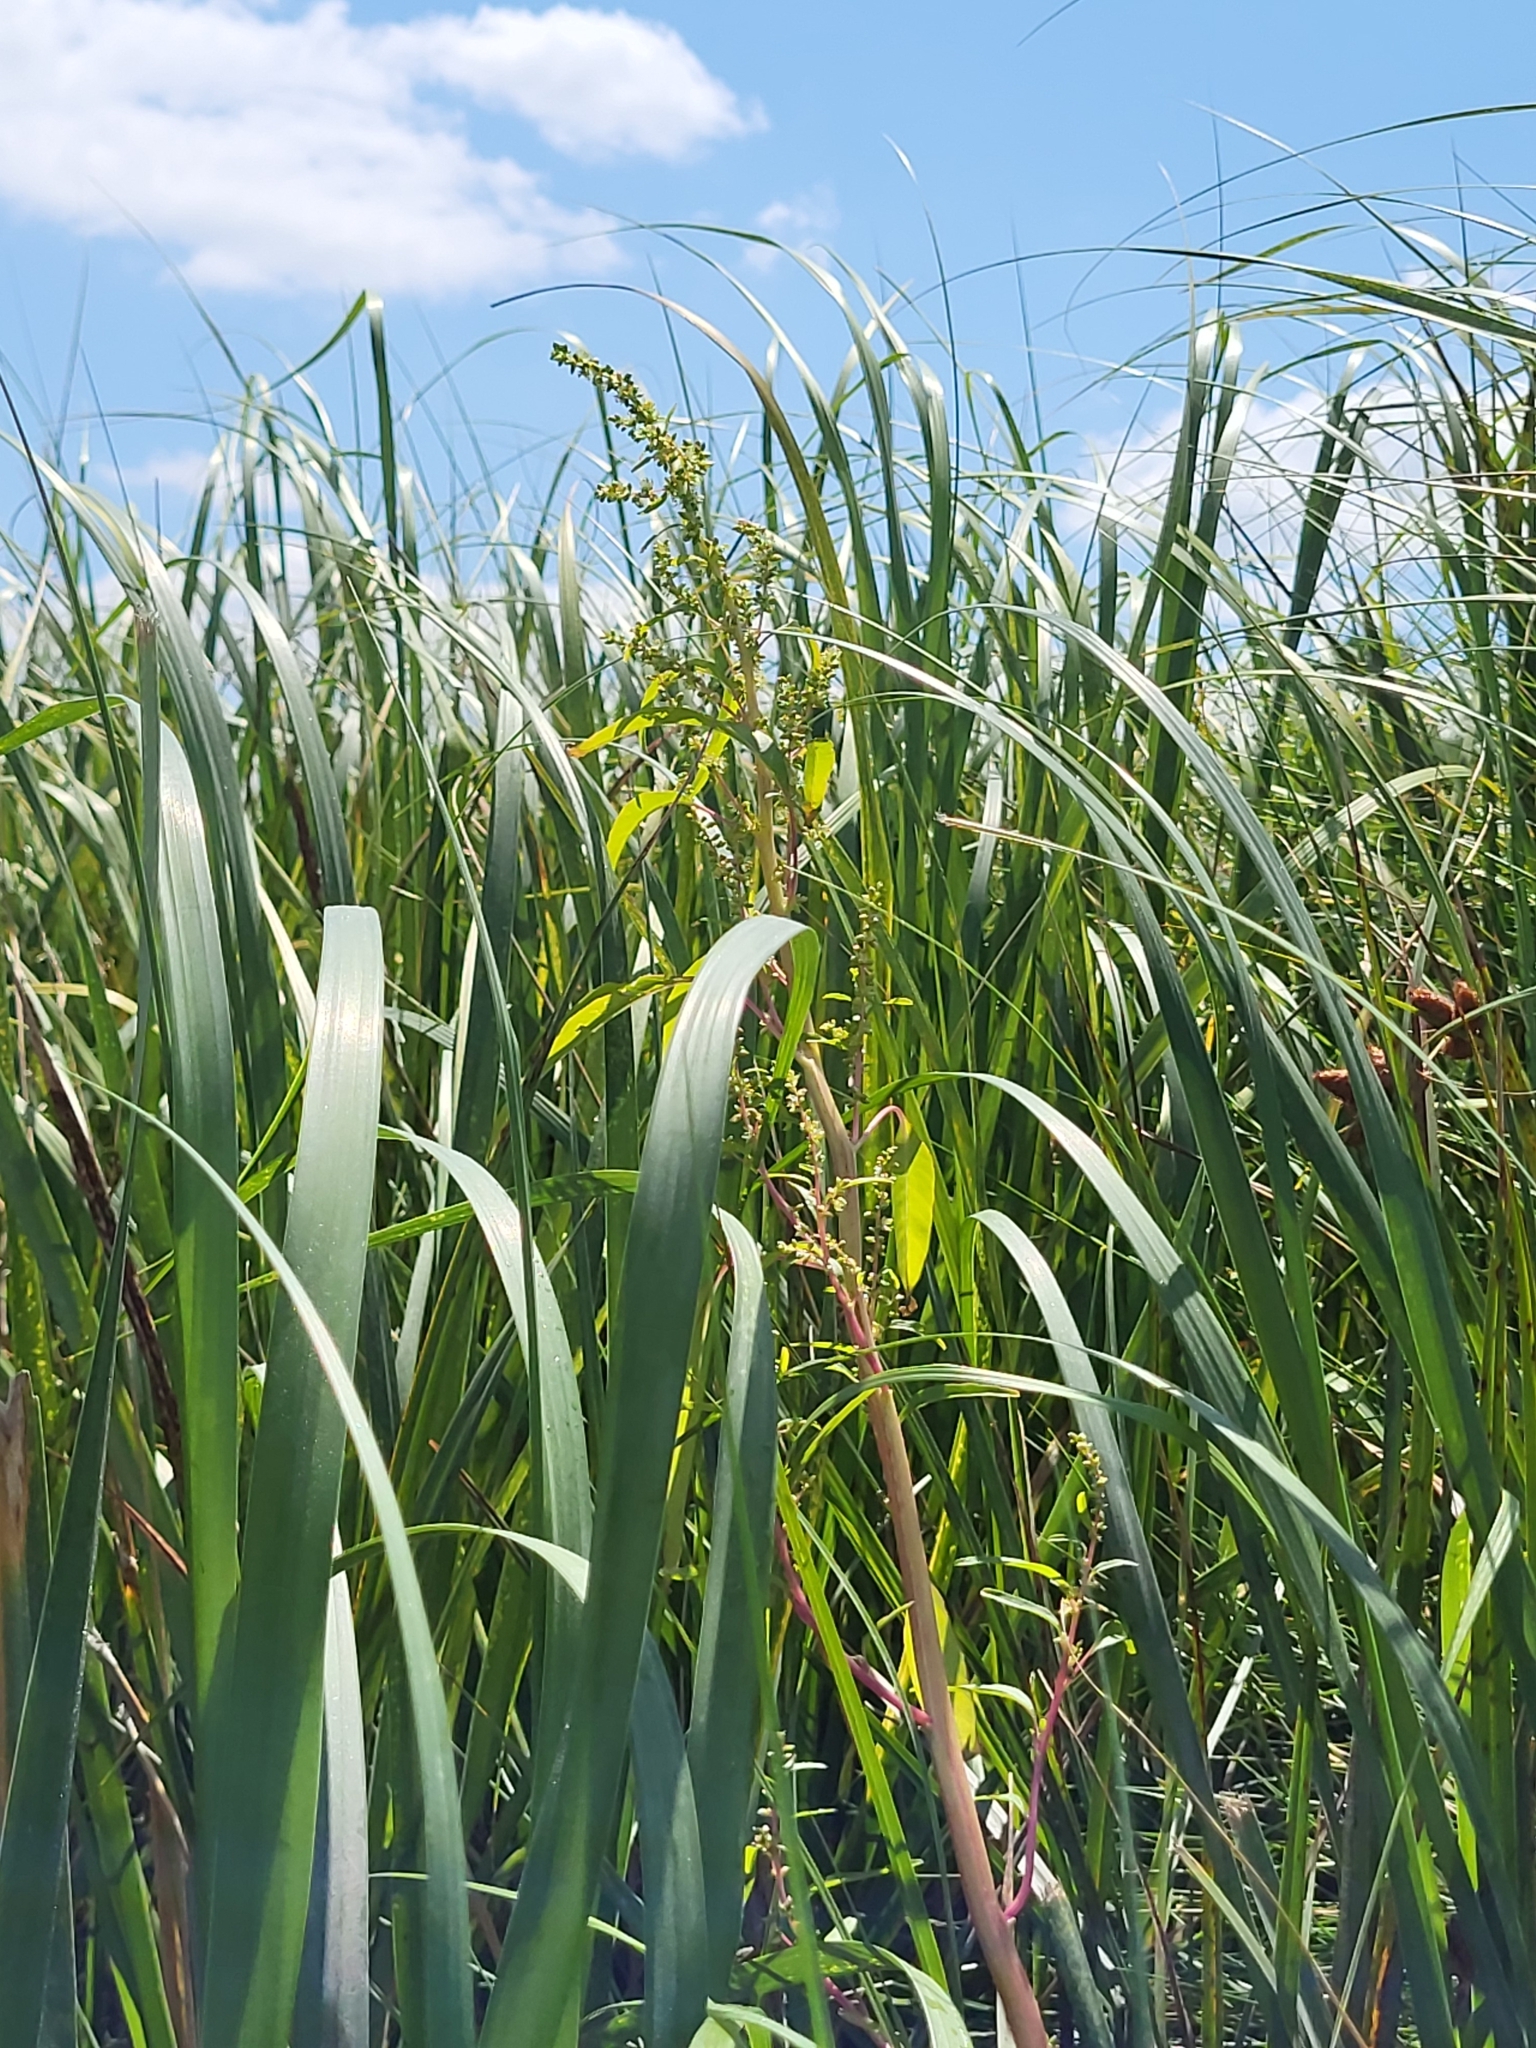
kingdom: Plantae
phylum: Tracheophyta
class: Magnoliopsida
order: Caryophyllales
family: Amaranthaceae
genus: Amaranthus
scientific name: Amaranthus cannabinus
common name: Salt-marsh water-hemp
